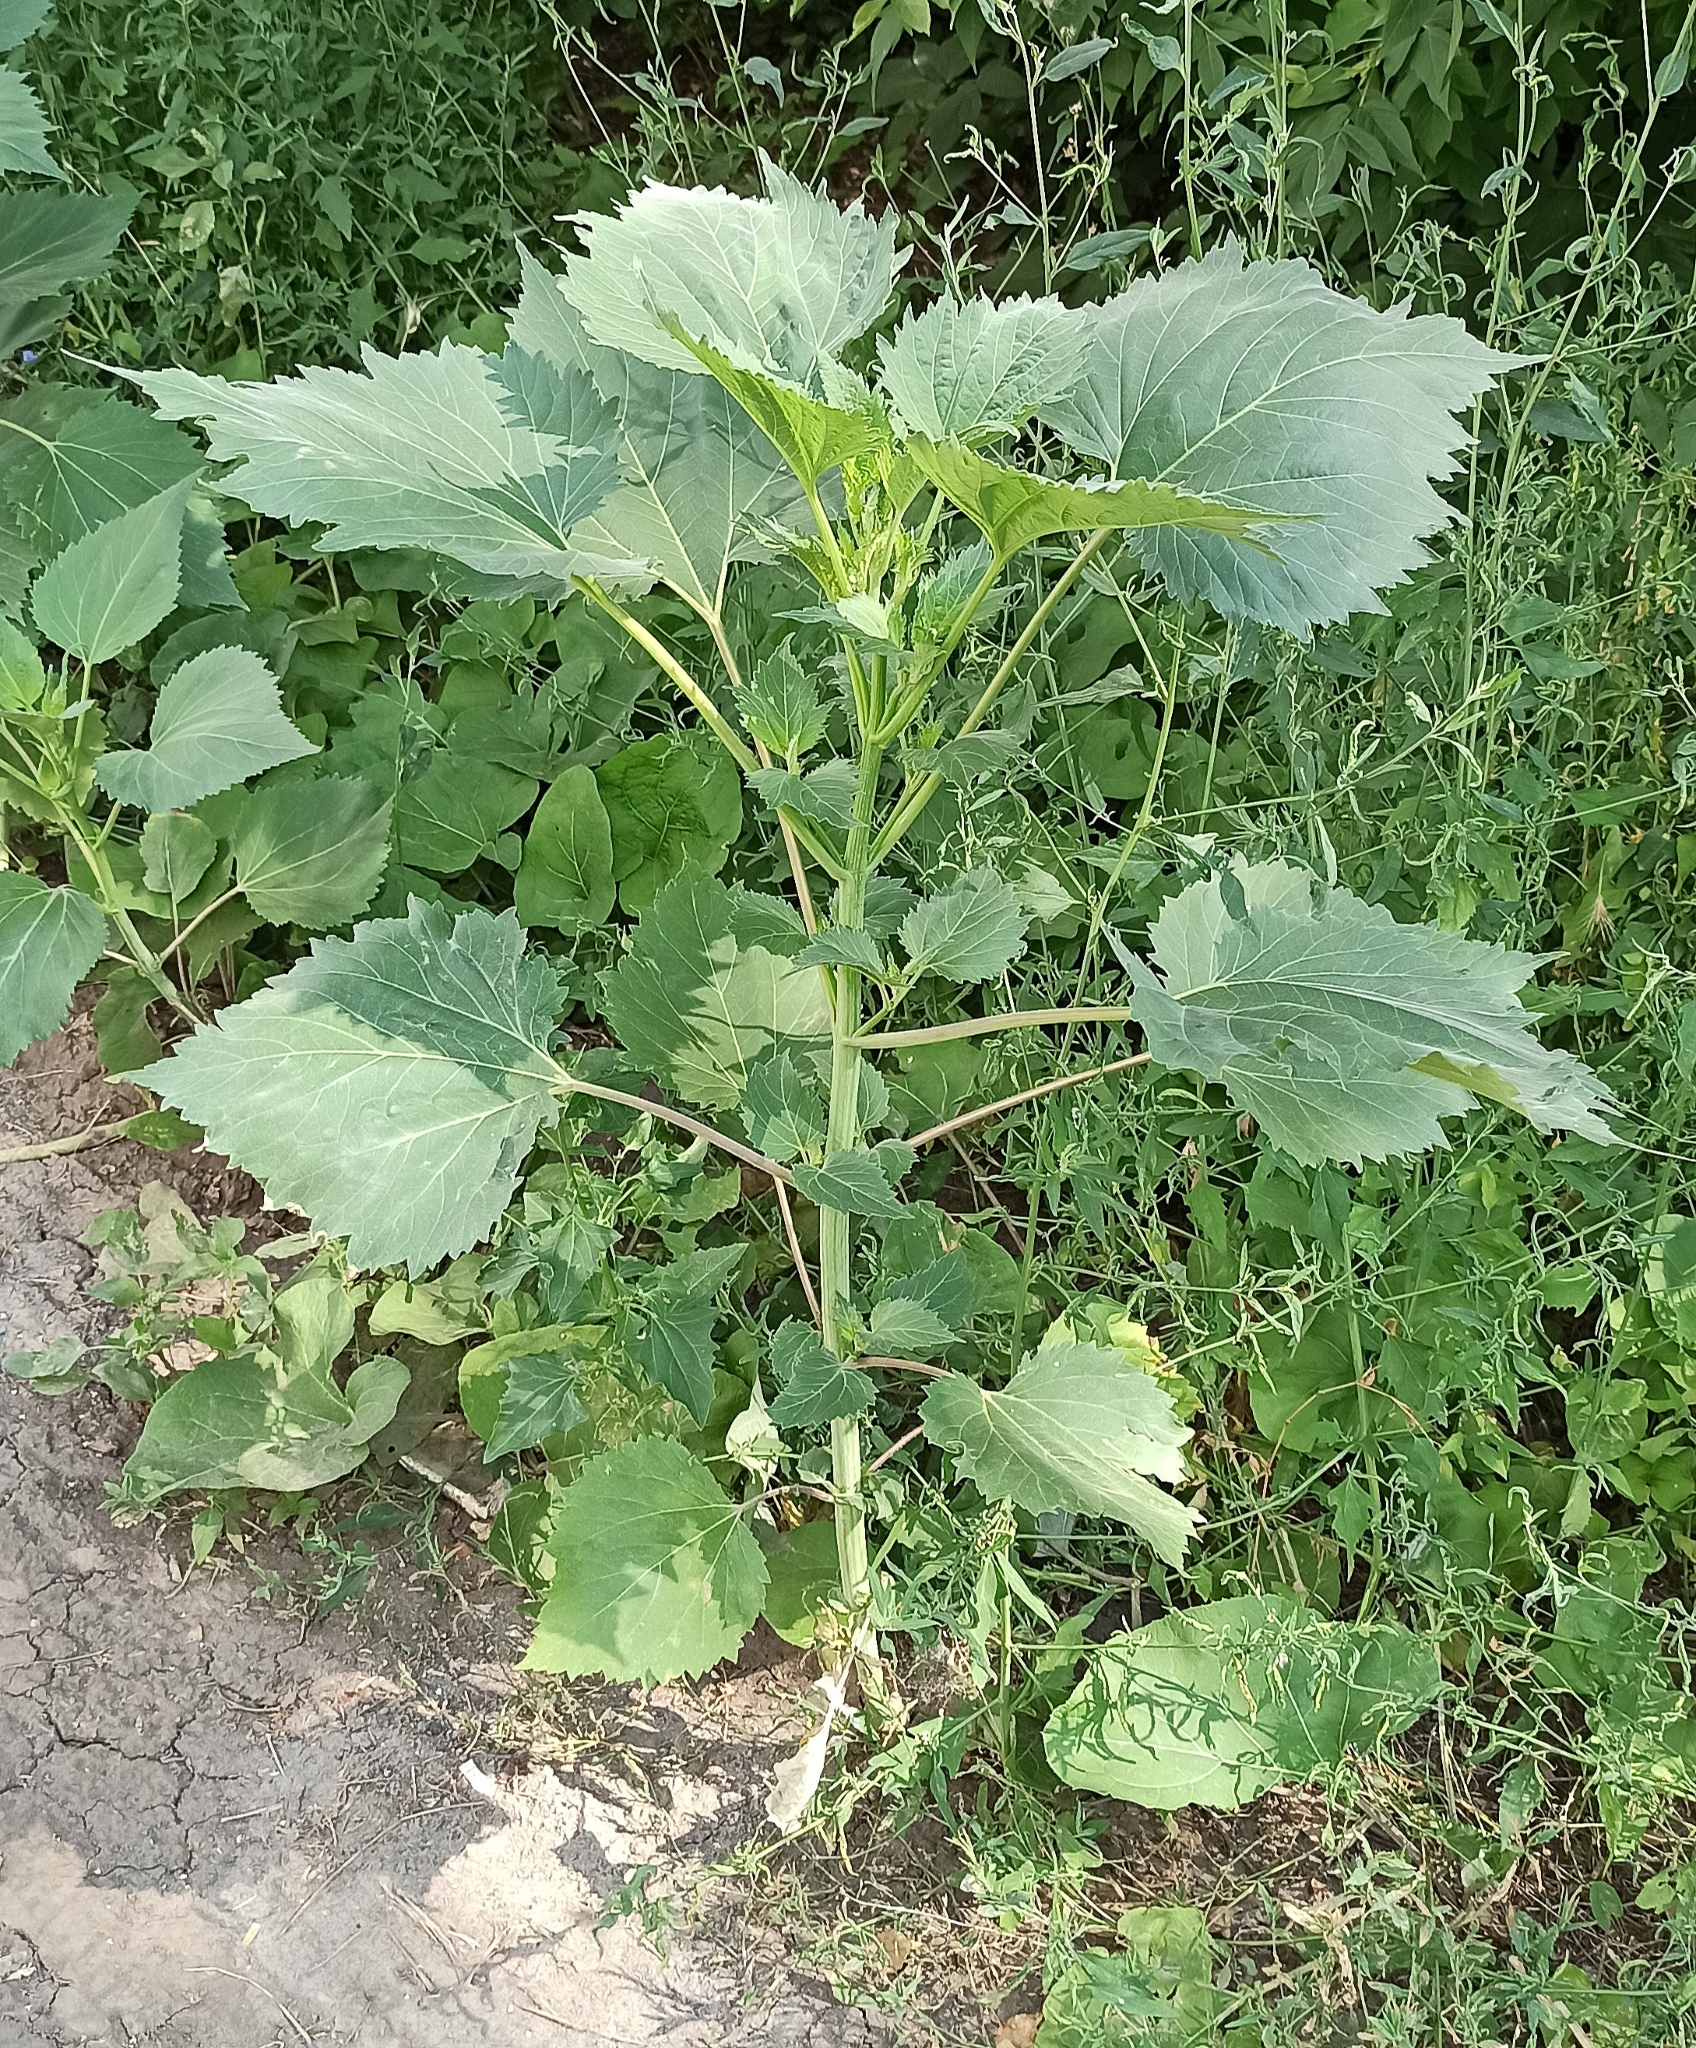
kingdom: Plantae
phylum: Tracheophyta
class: Magnoliopsida
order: Asterales
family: Asteraceae
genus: Cyclachaena
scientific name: Cyclachaena xanthiifolia
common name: Giant sumpweed
